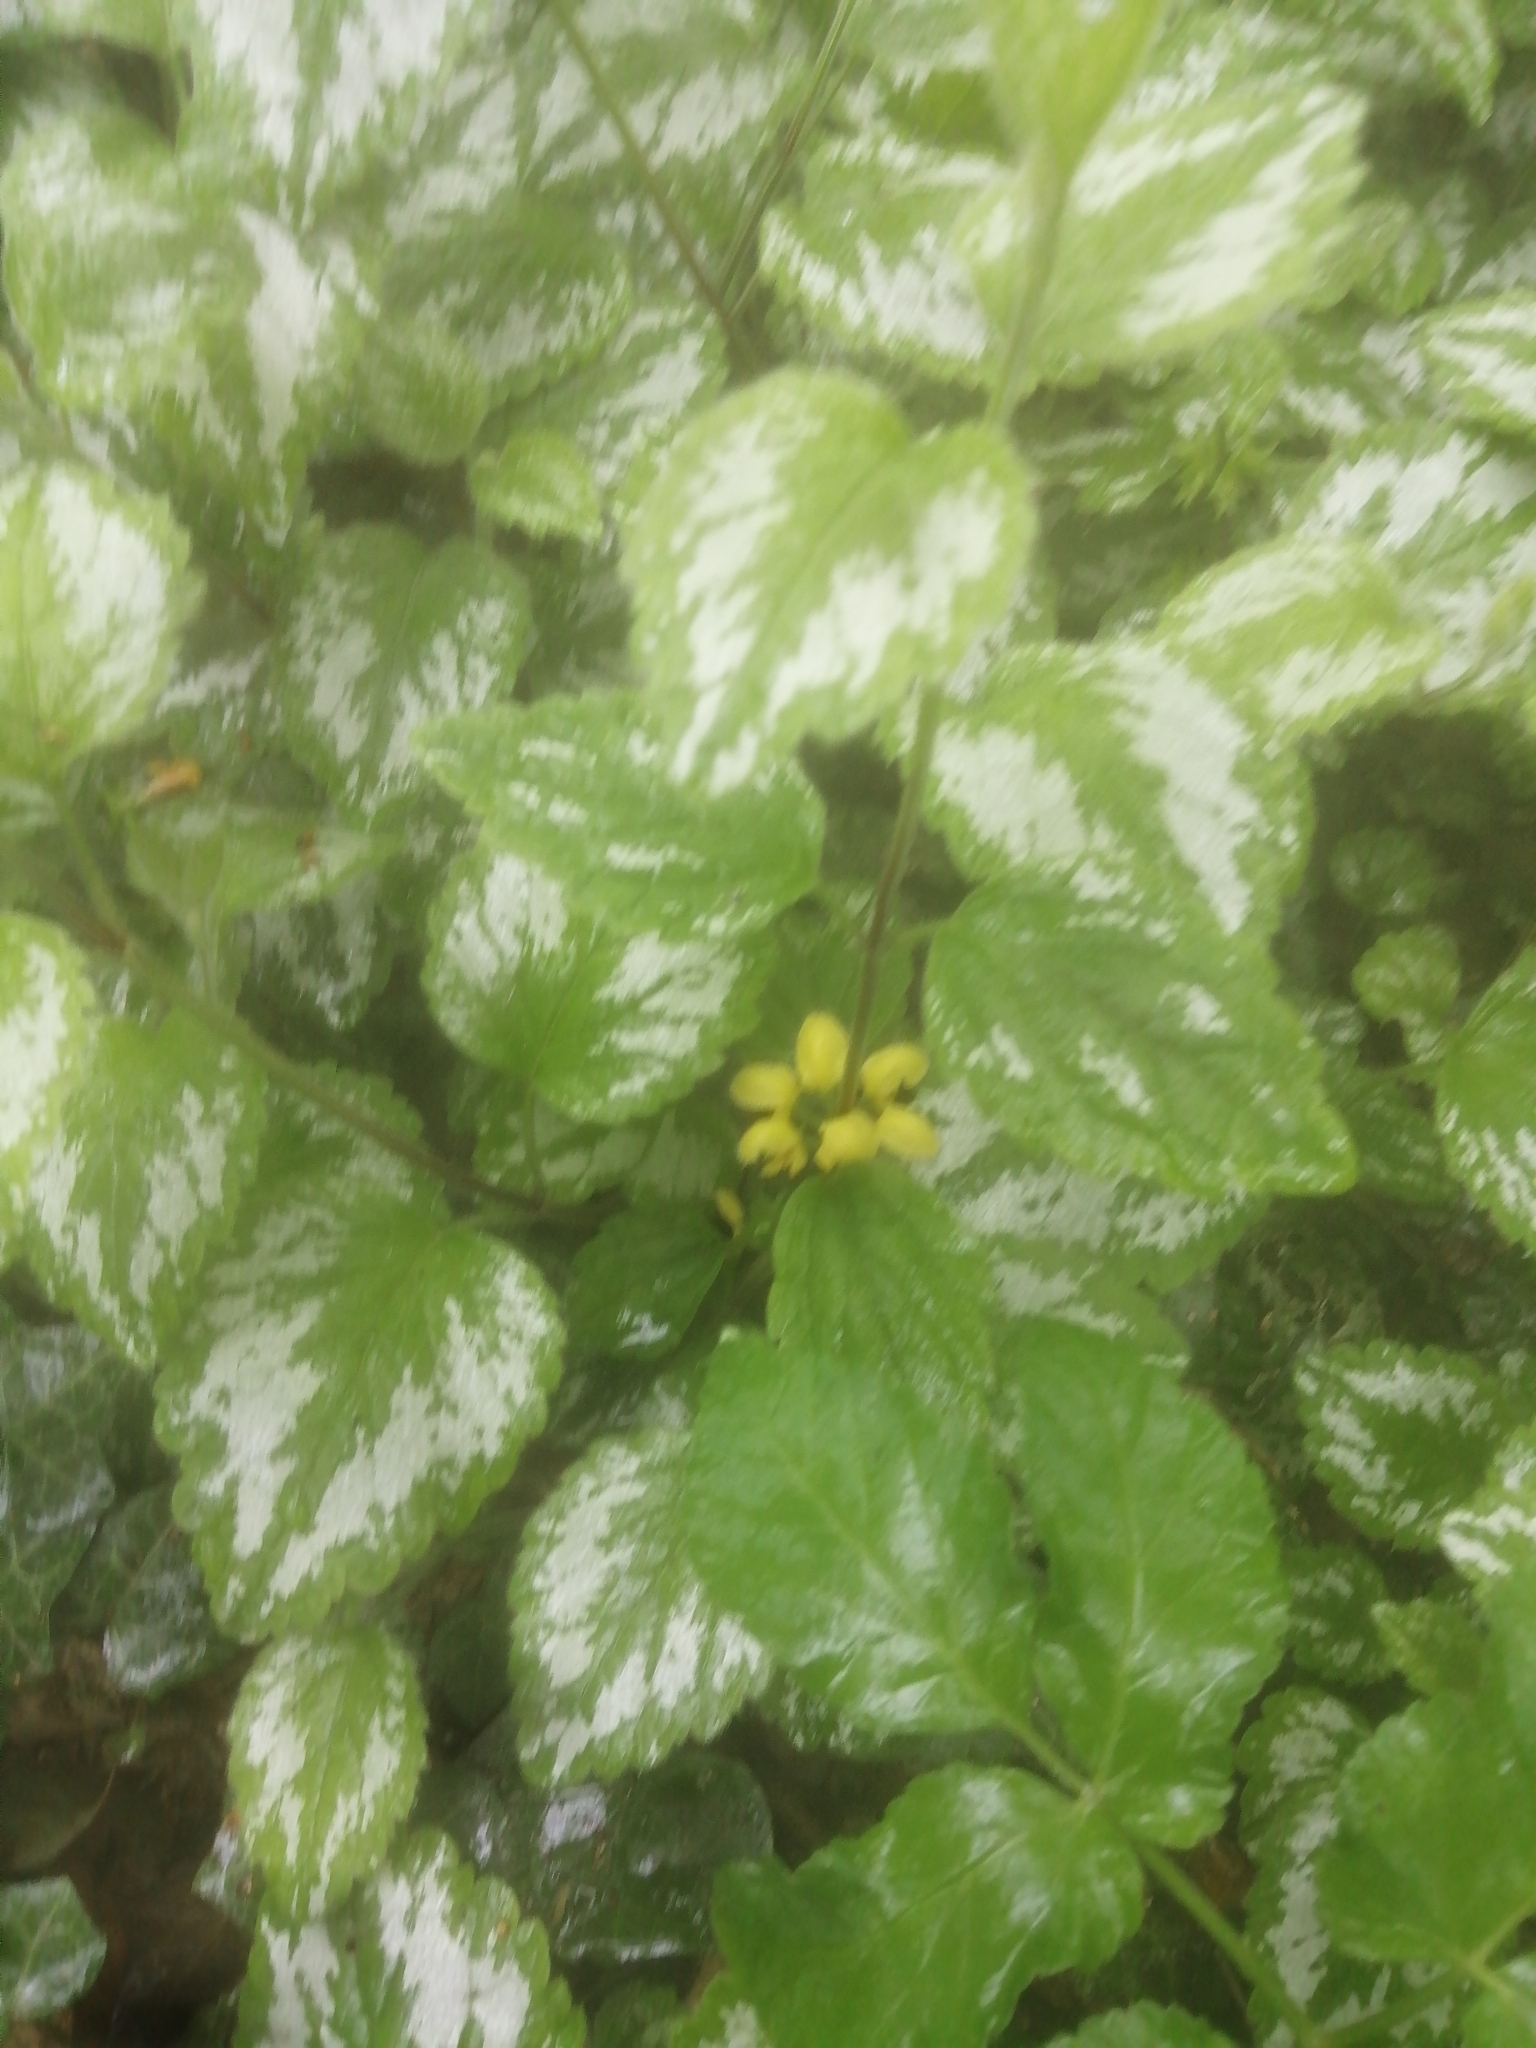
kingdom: Plantae
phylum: Tracheophyta
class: Magnoliopsida
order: Lamiales
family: Lamiaceae
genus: Lamium
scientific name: Lamium galeobdolon
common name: Yellow archangel
